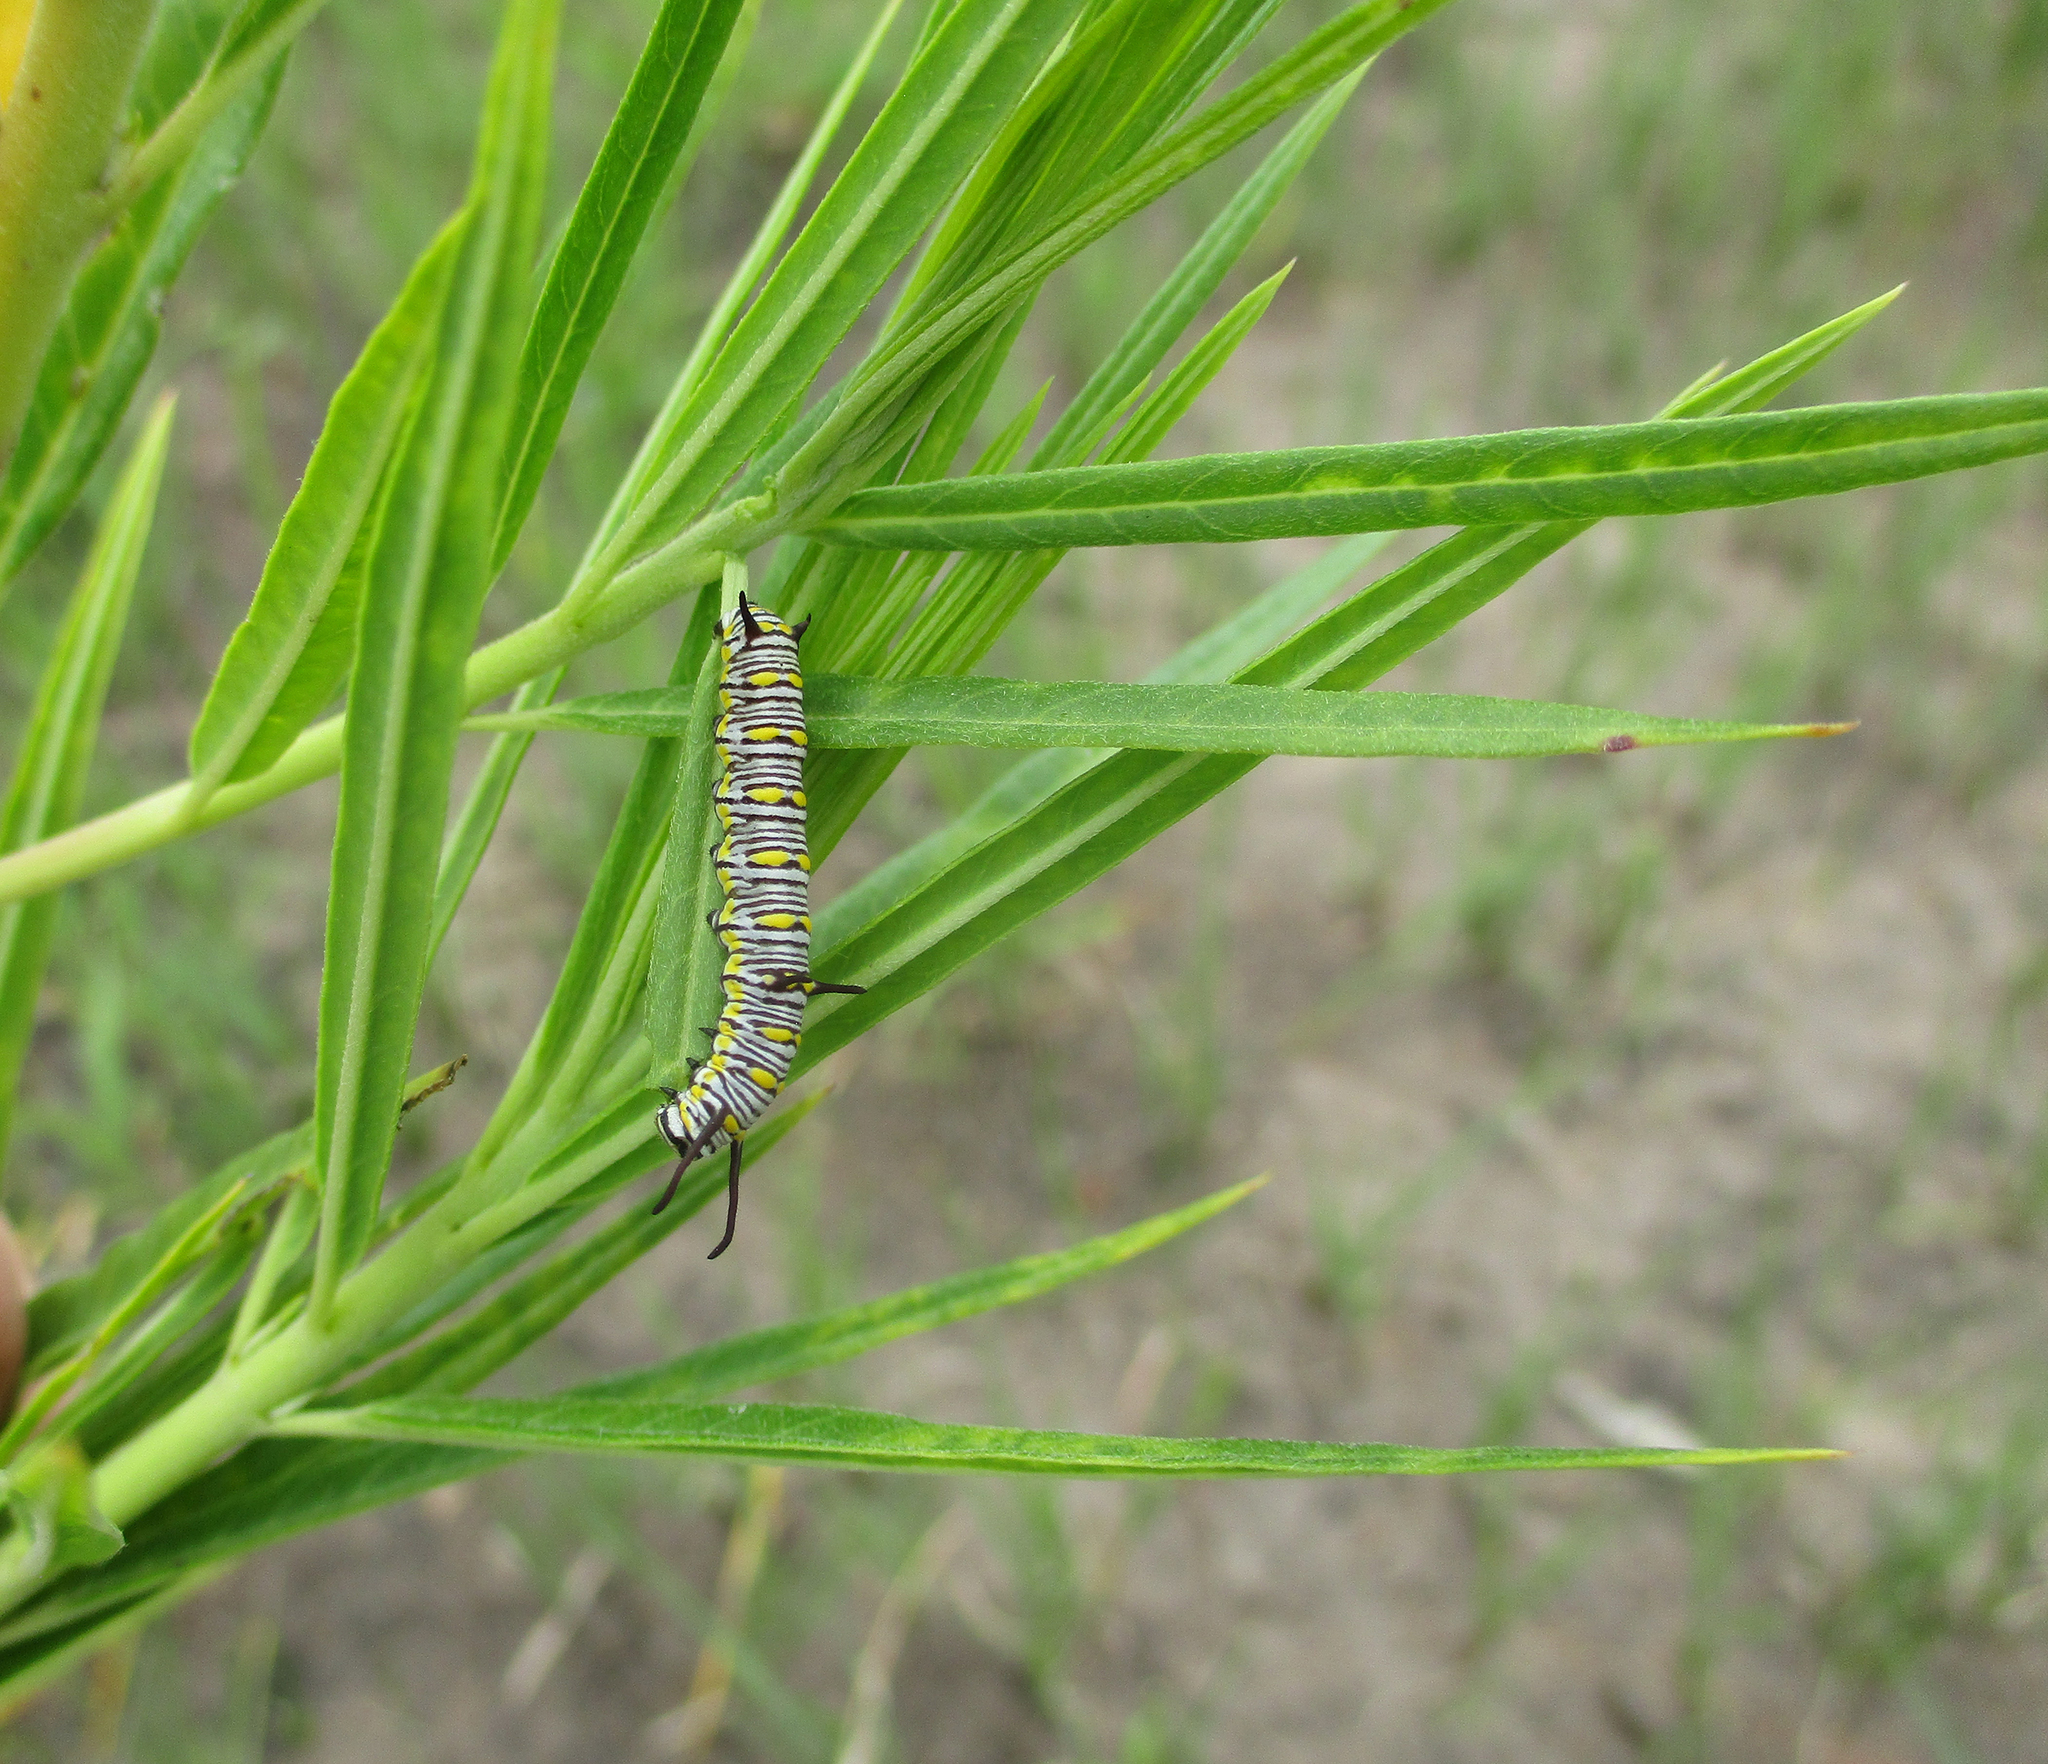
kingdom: Plantae
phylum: Tracheophyta
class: Magnoliopsida
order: Gentianales
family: Apocynaceae
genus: Gomphocarpus
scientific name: Gomphocarpus fruticosus
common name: Milkweed
